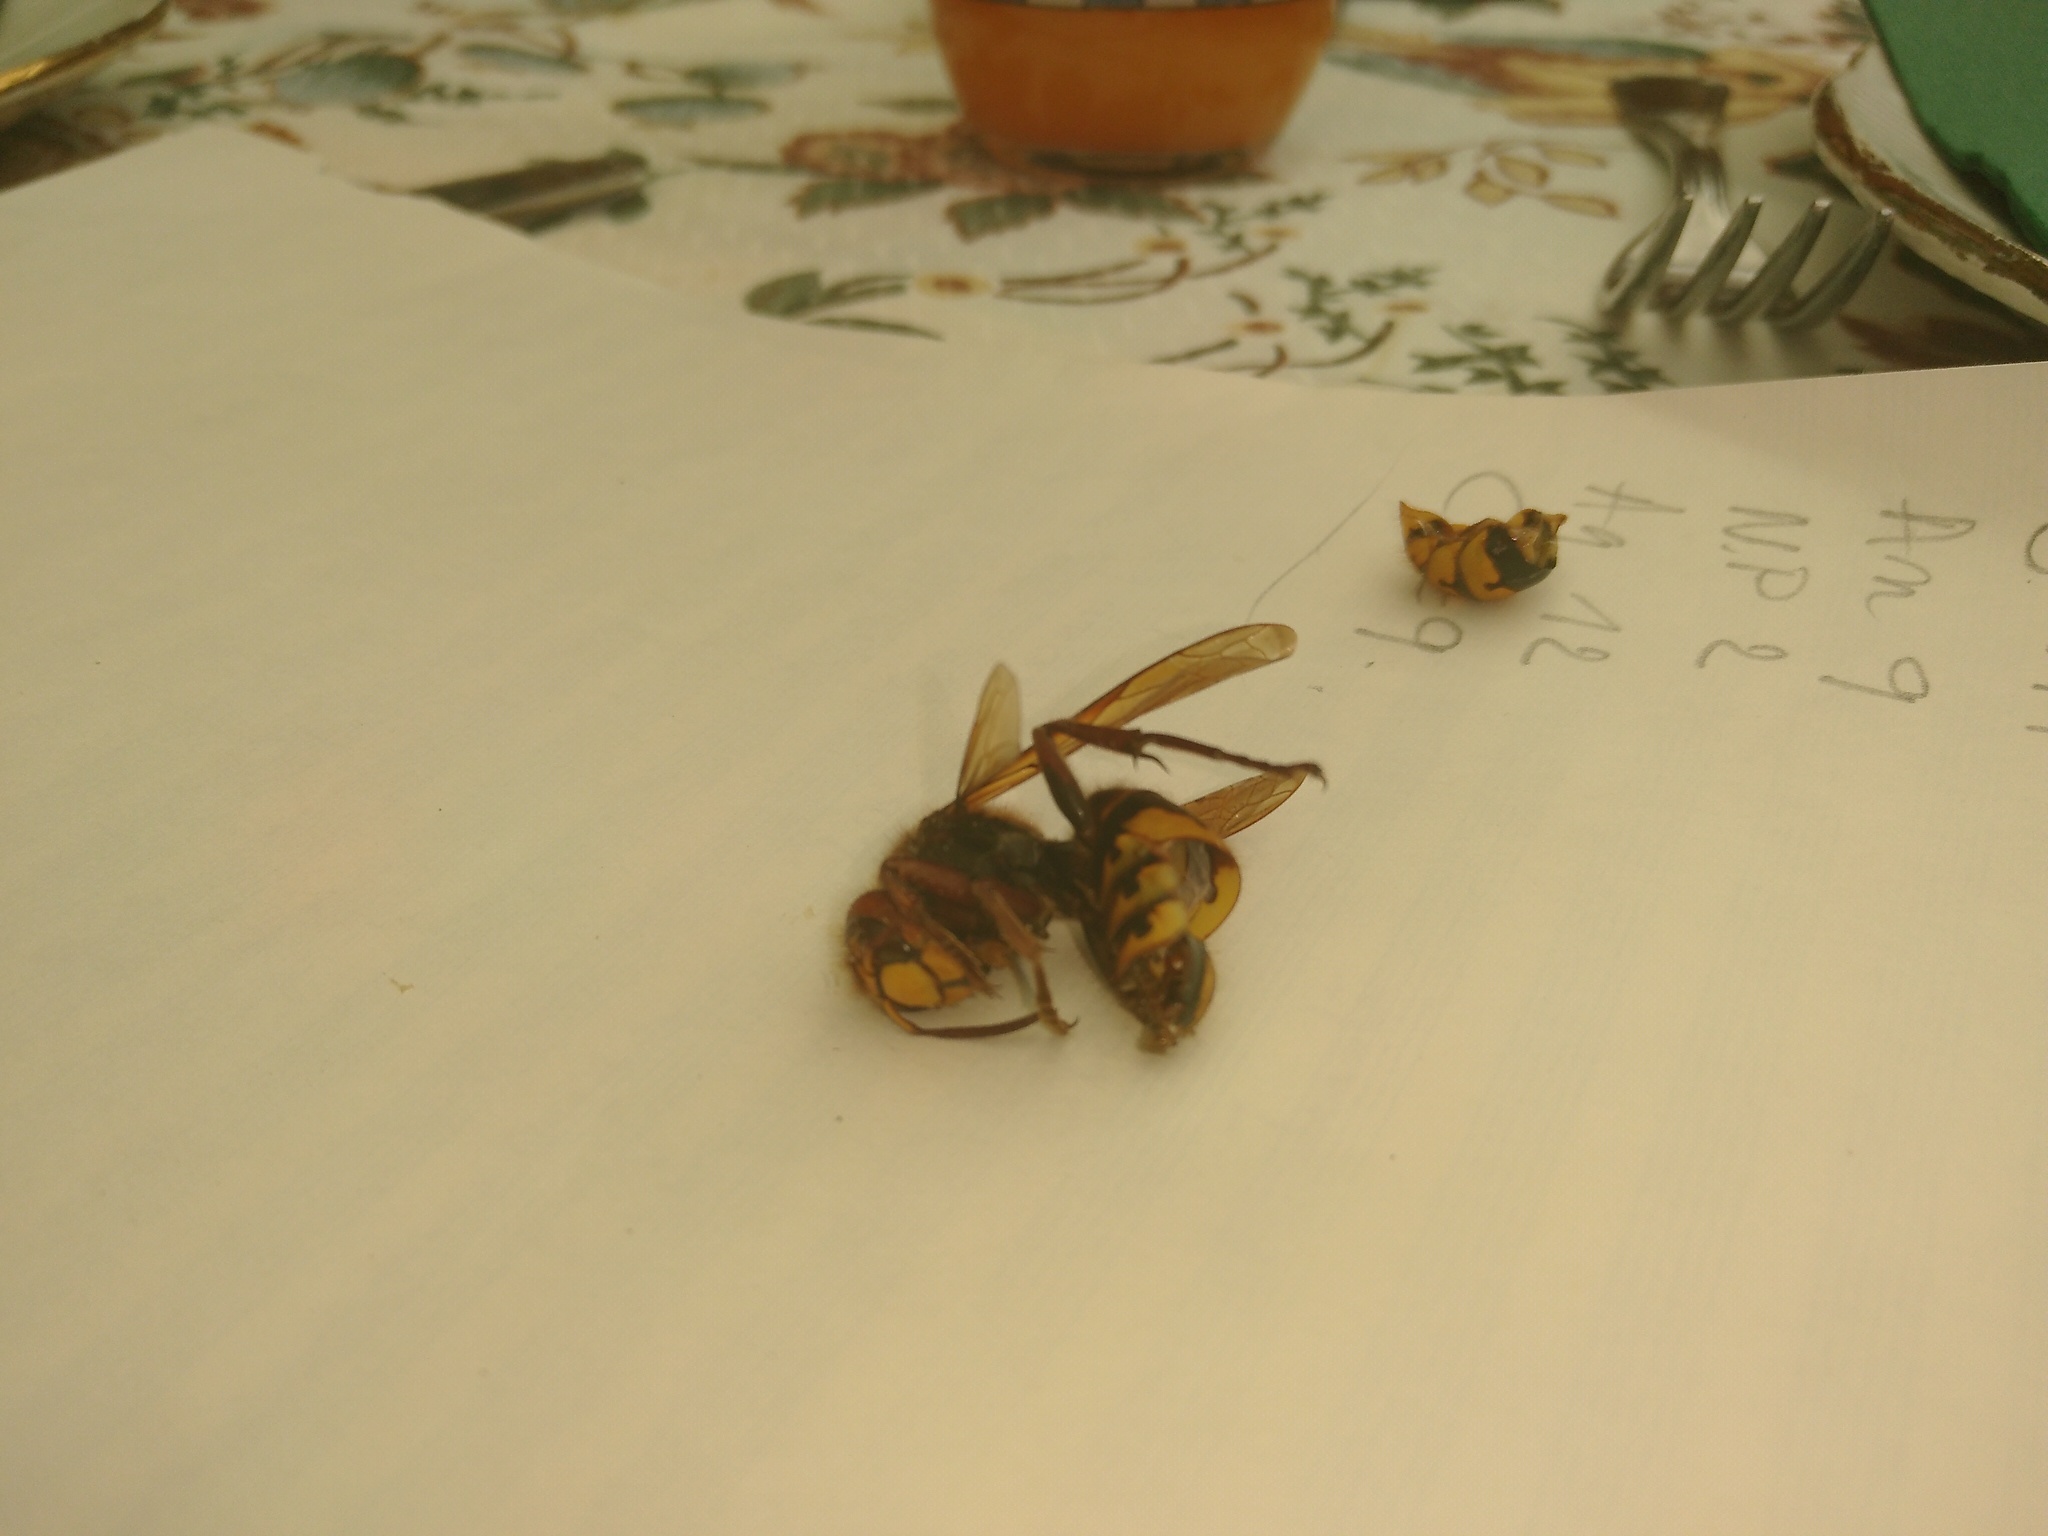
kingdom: Animalia
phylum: Arthropoda
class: Insecta
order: Hymenoptera
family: Vespidae
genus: Vespa
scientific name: Vespa crabro
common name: Hornet
